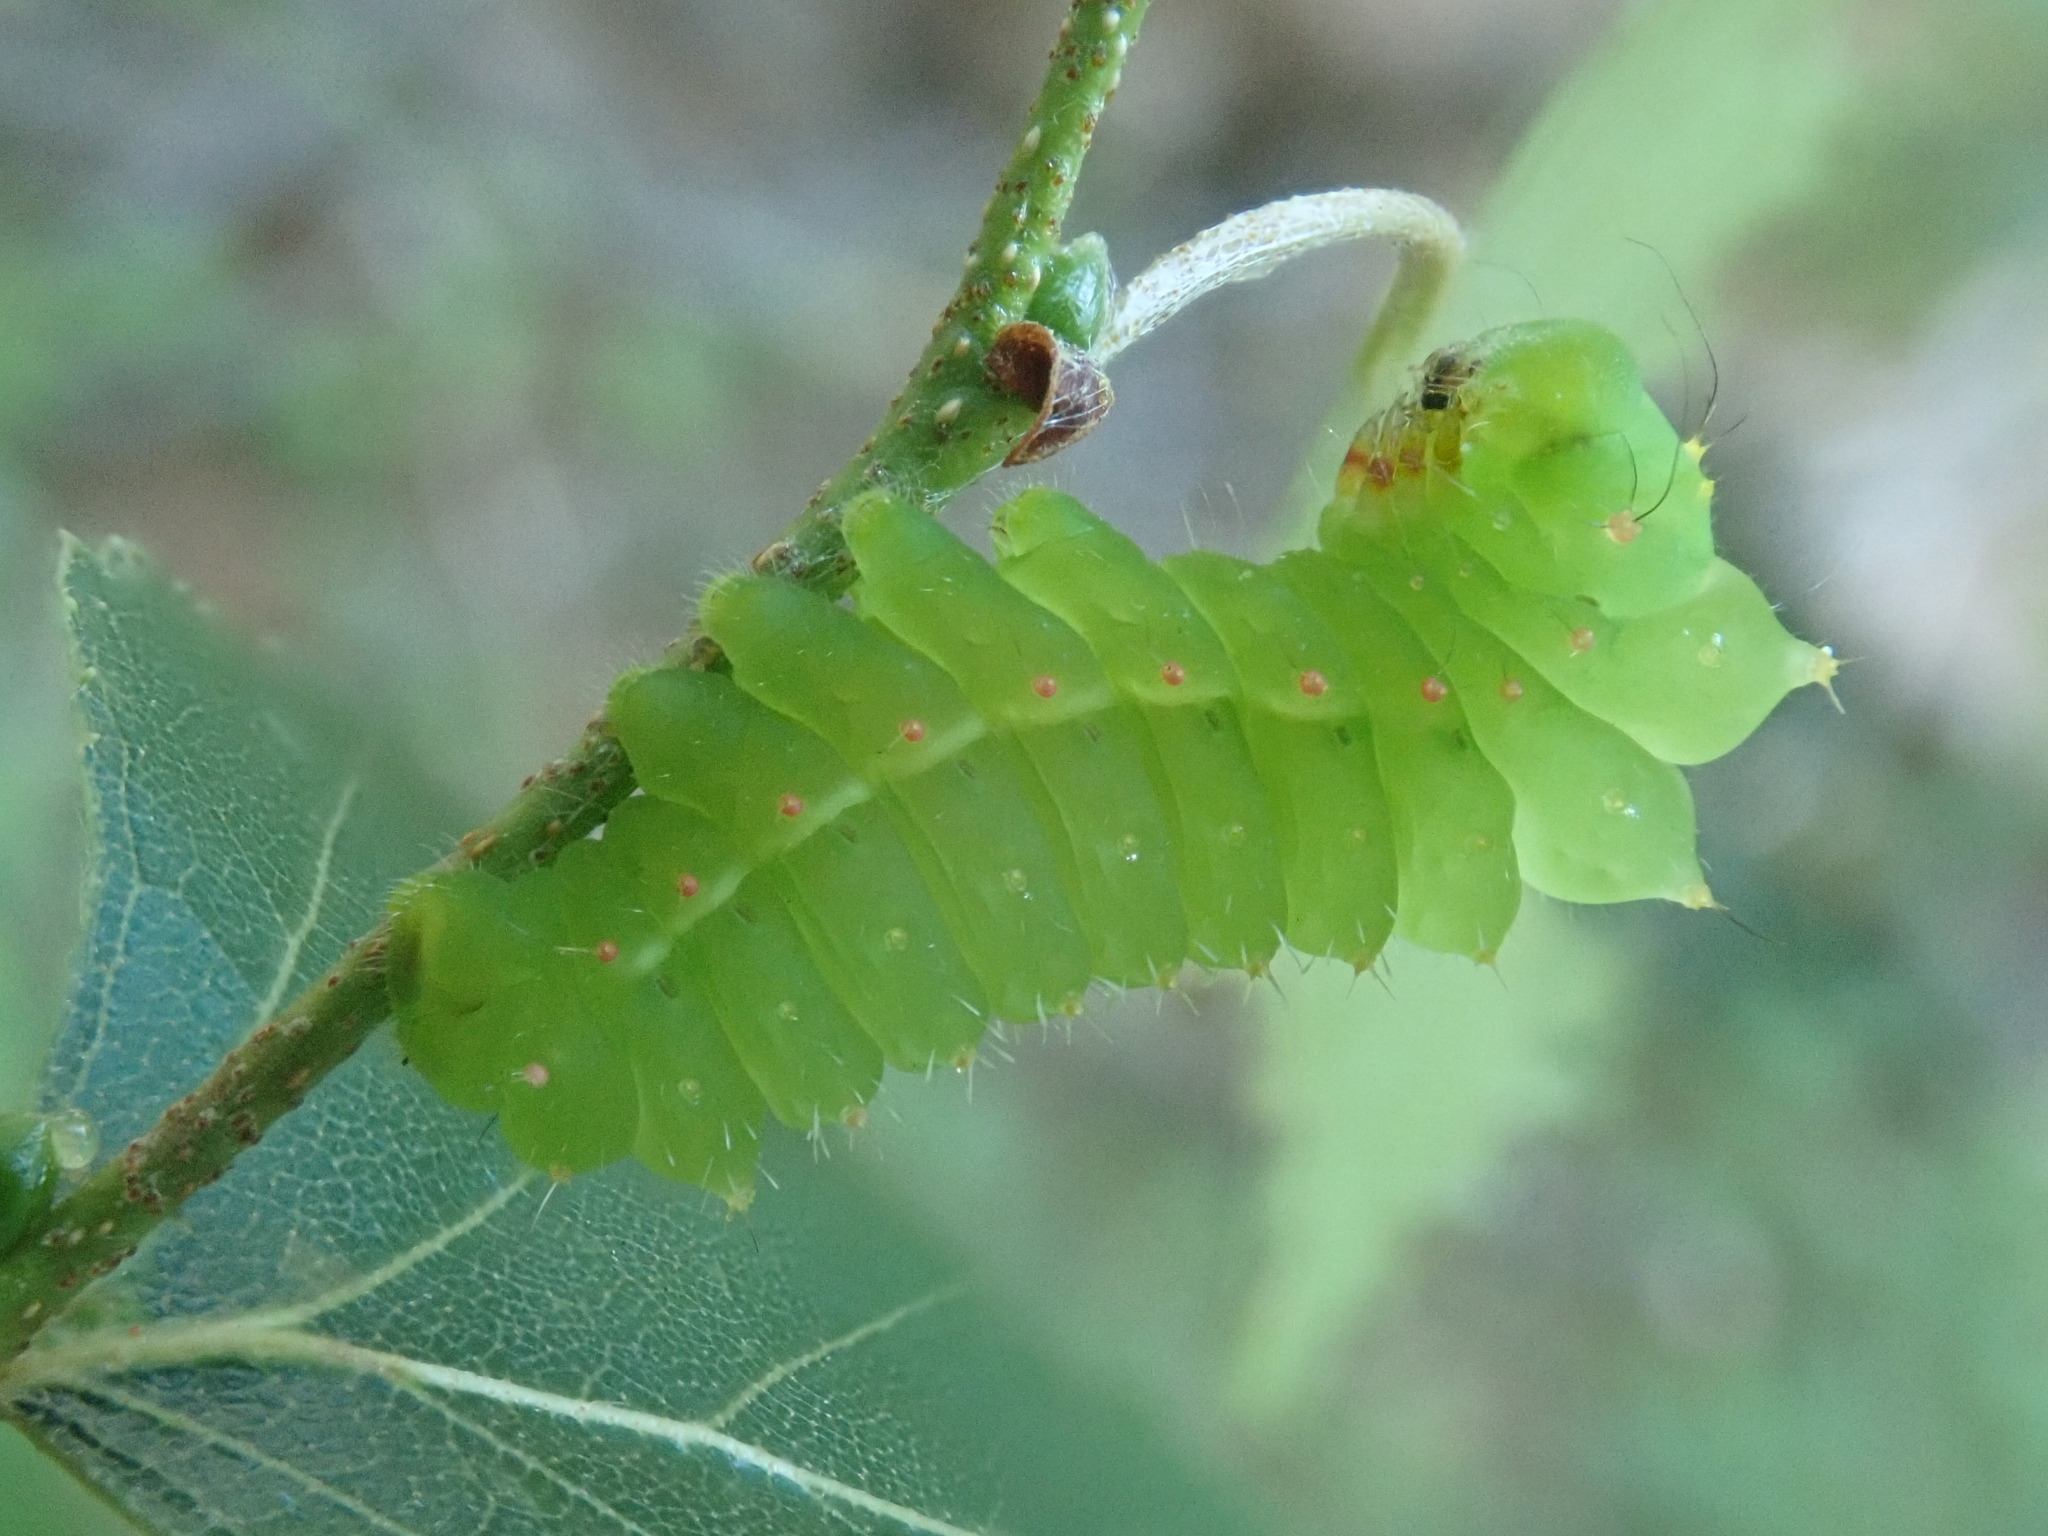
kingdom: Animalia
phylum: Arthropoda
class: Insecta
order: Lepidoptera
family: Saturniidae
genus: Antheraea
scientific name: Antheraea polyphemus
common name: Polyphemus moth
